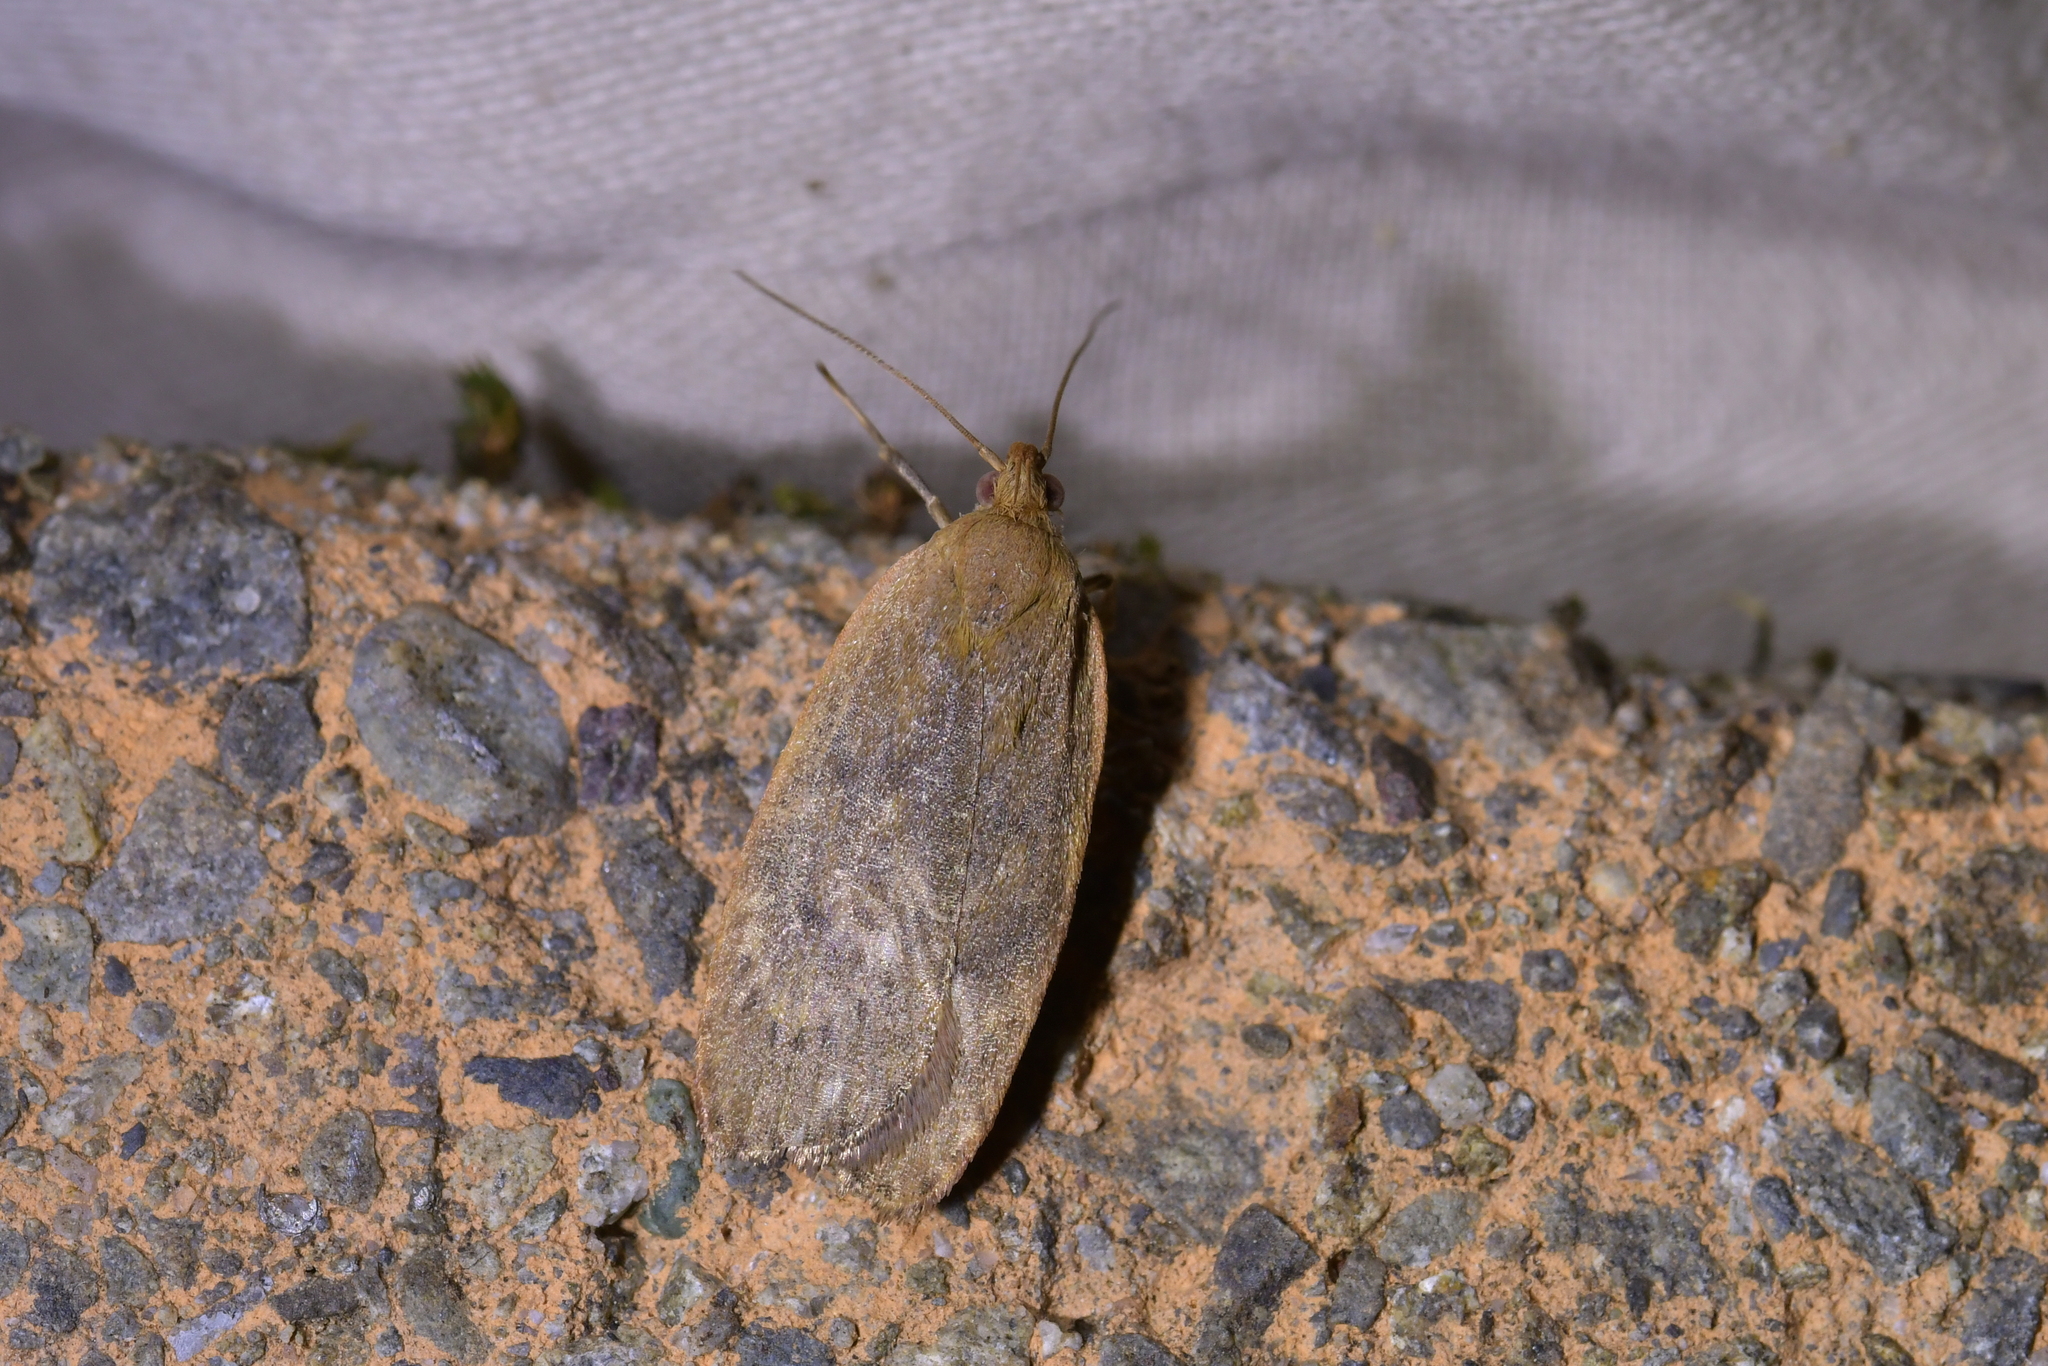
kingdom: Animalia
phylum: Arthropoda
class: Insecta
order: Lepidoptera
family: Depressariidae
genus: Phaeosaces
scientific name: Phaeosaces coarctatella
